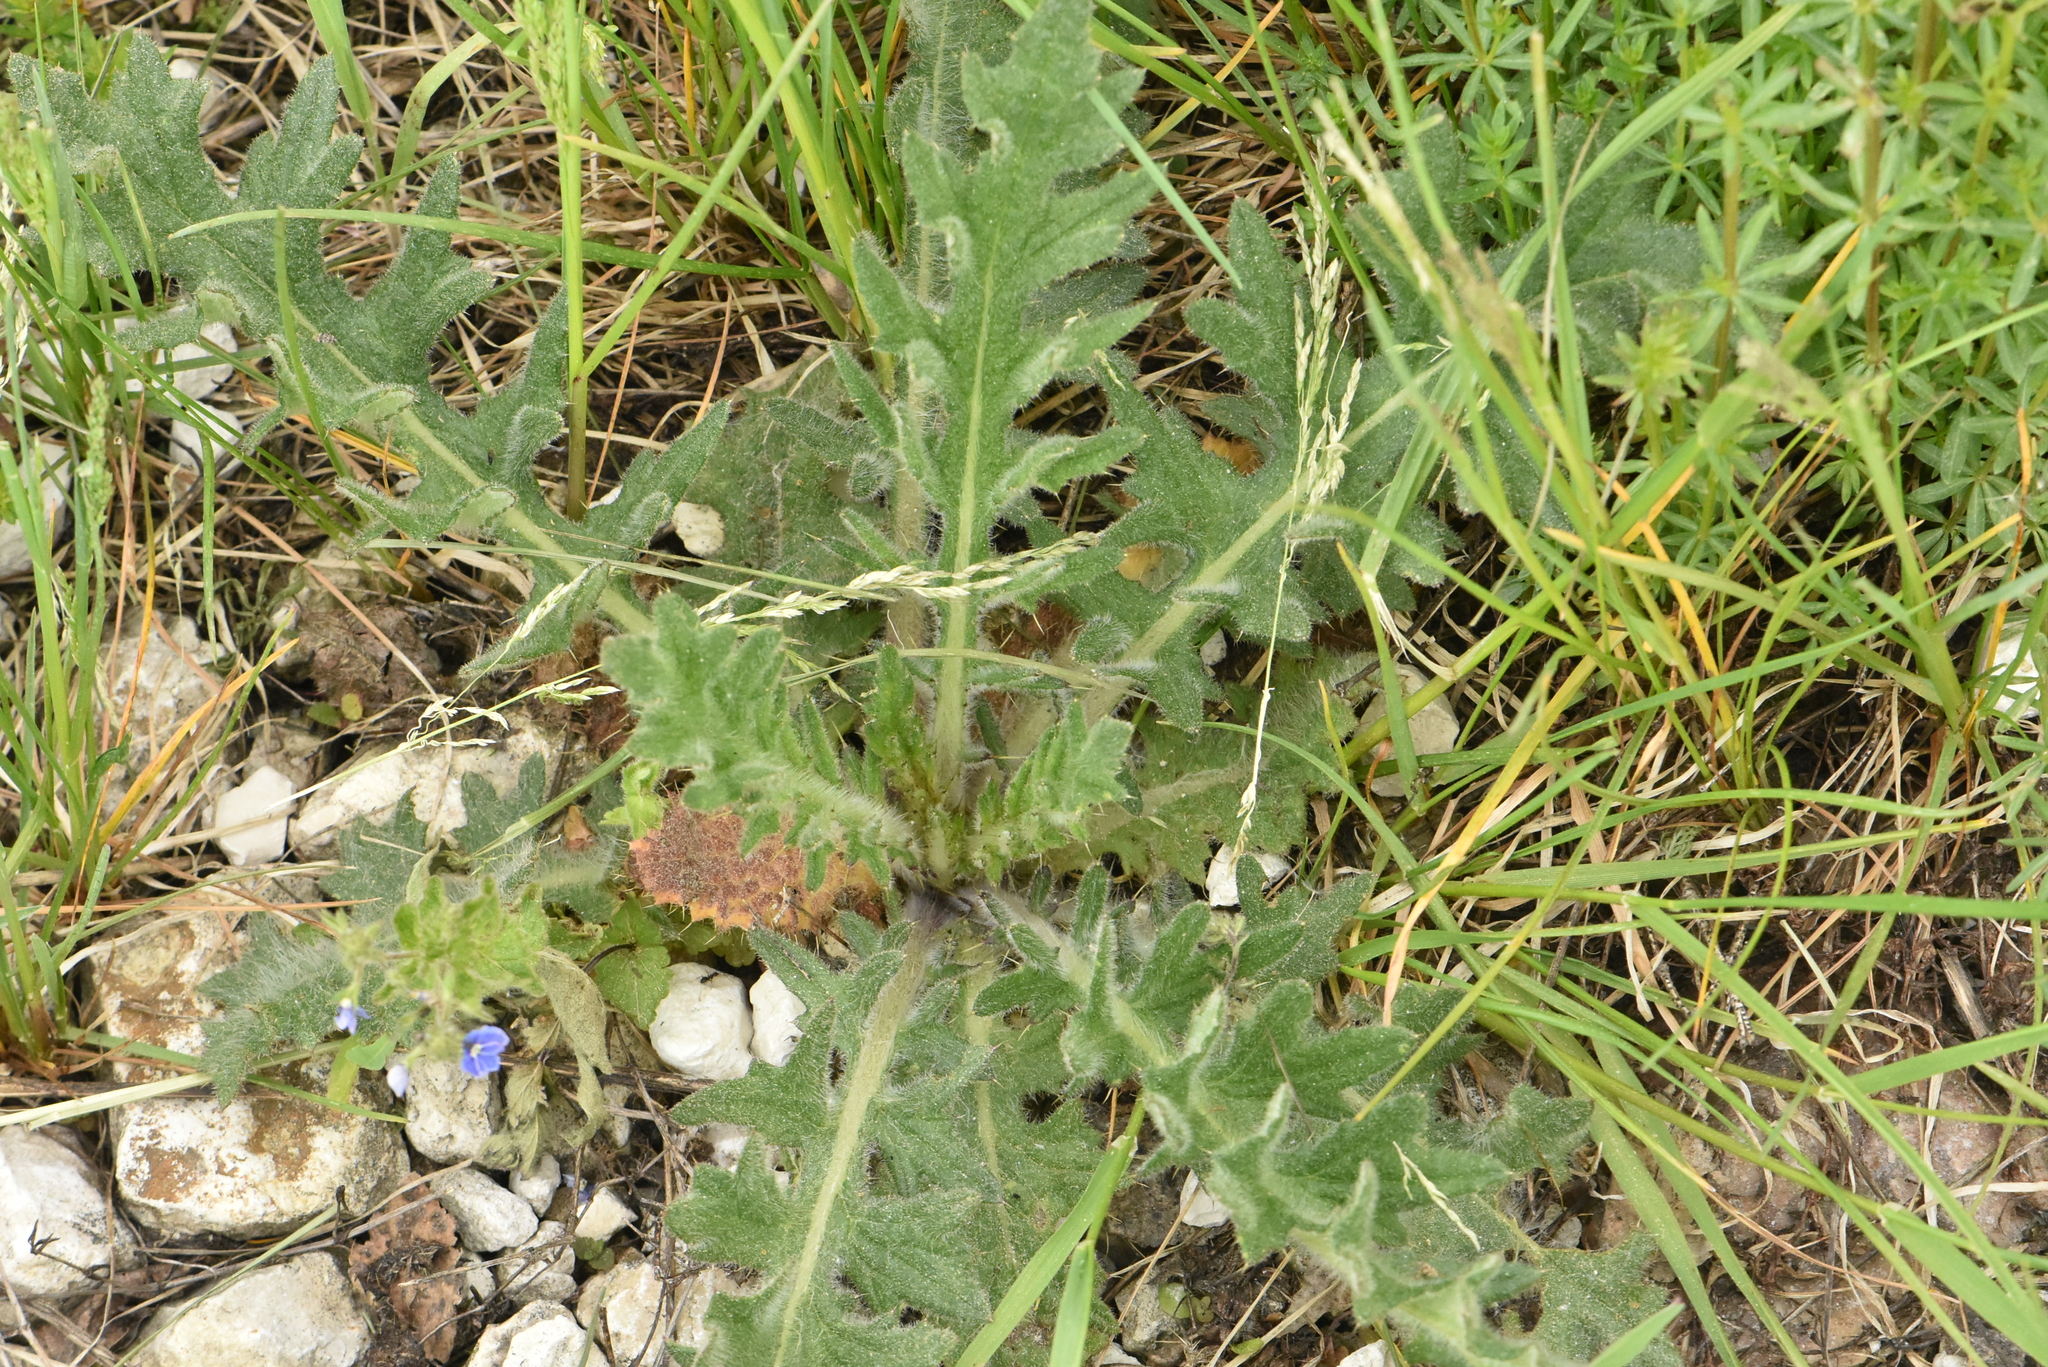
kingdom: Plantae
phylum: Tracheophyta
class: Magnoliopsida
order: Asterales
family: Asteraceae
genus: Cirsium
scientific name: Cirsium vulgare
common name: Bull thistle
